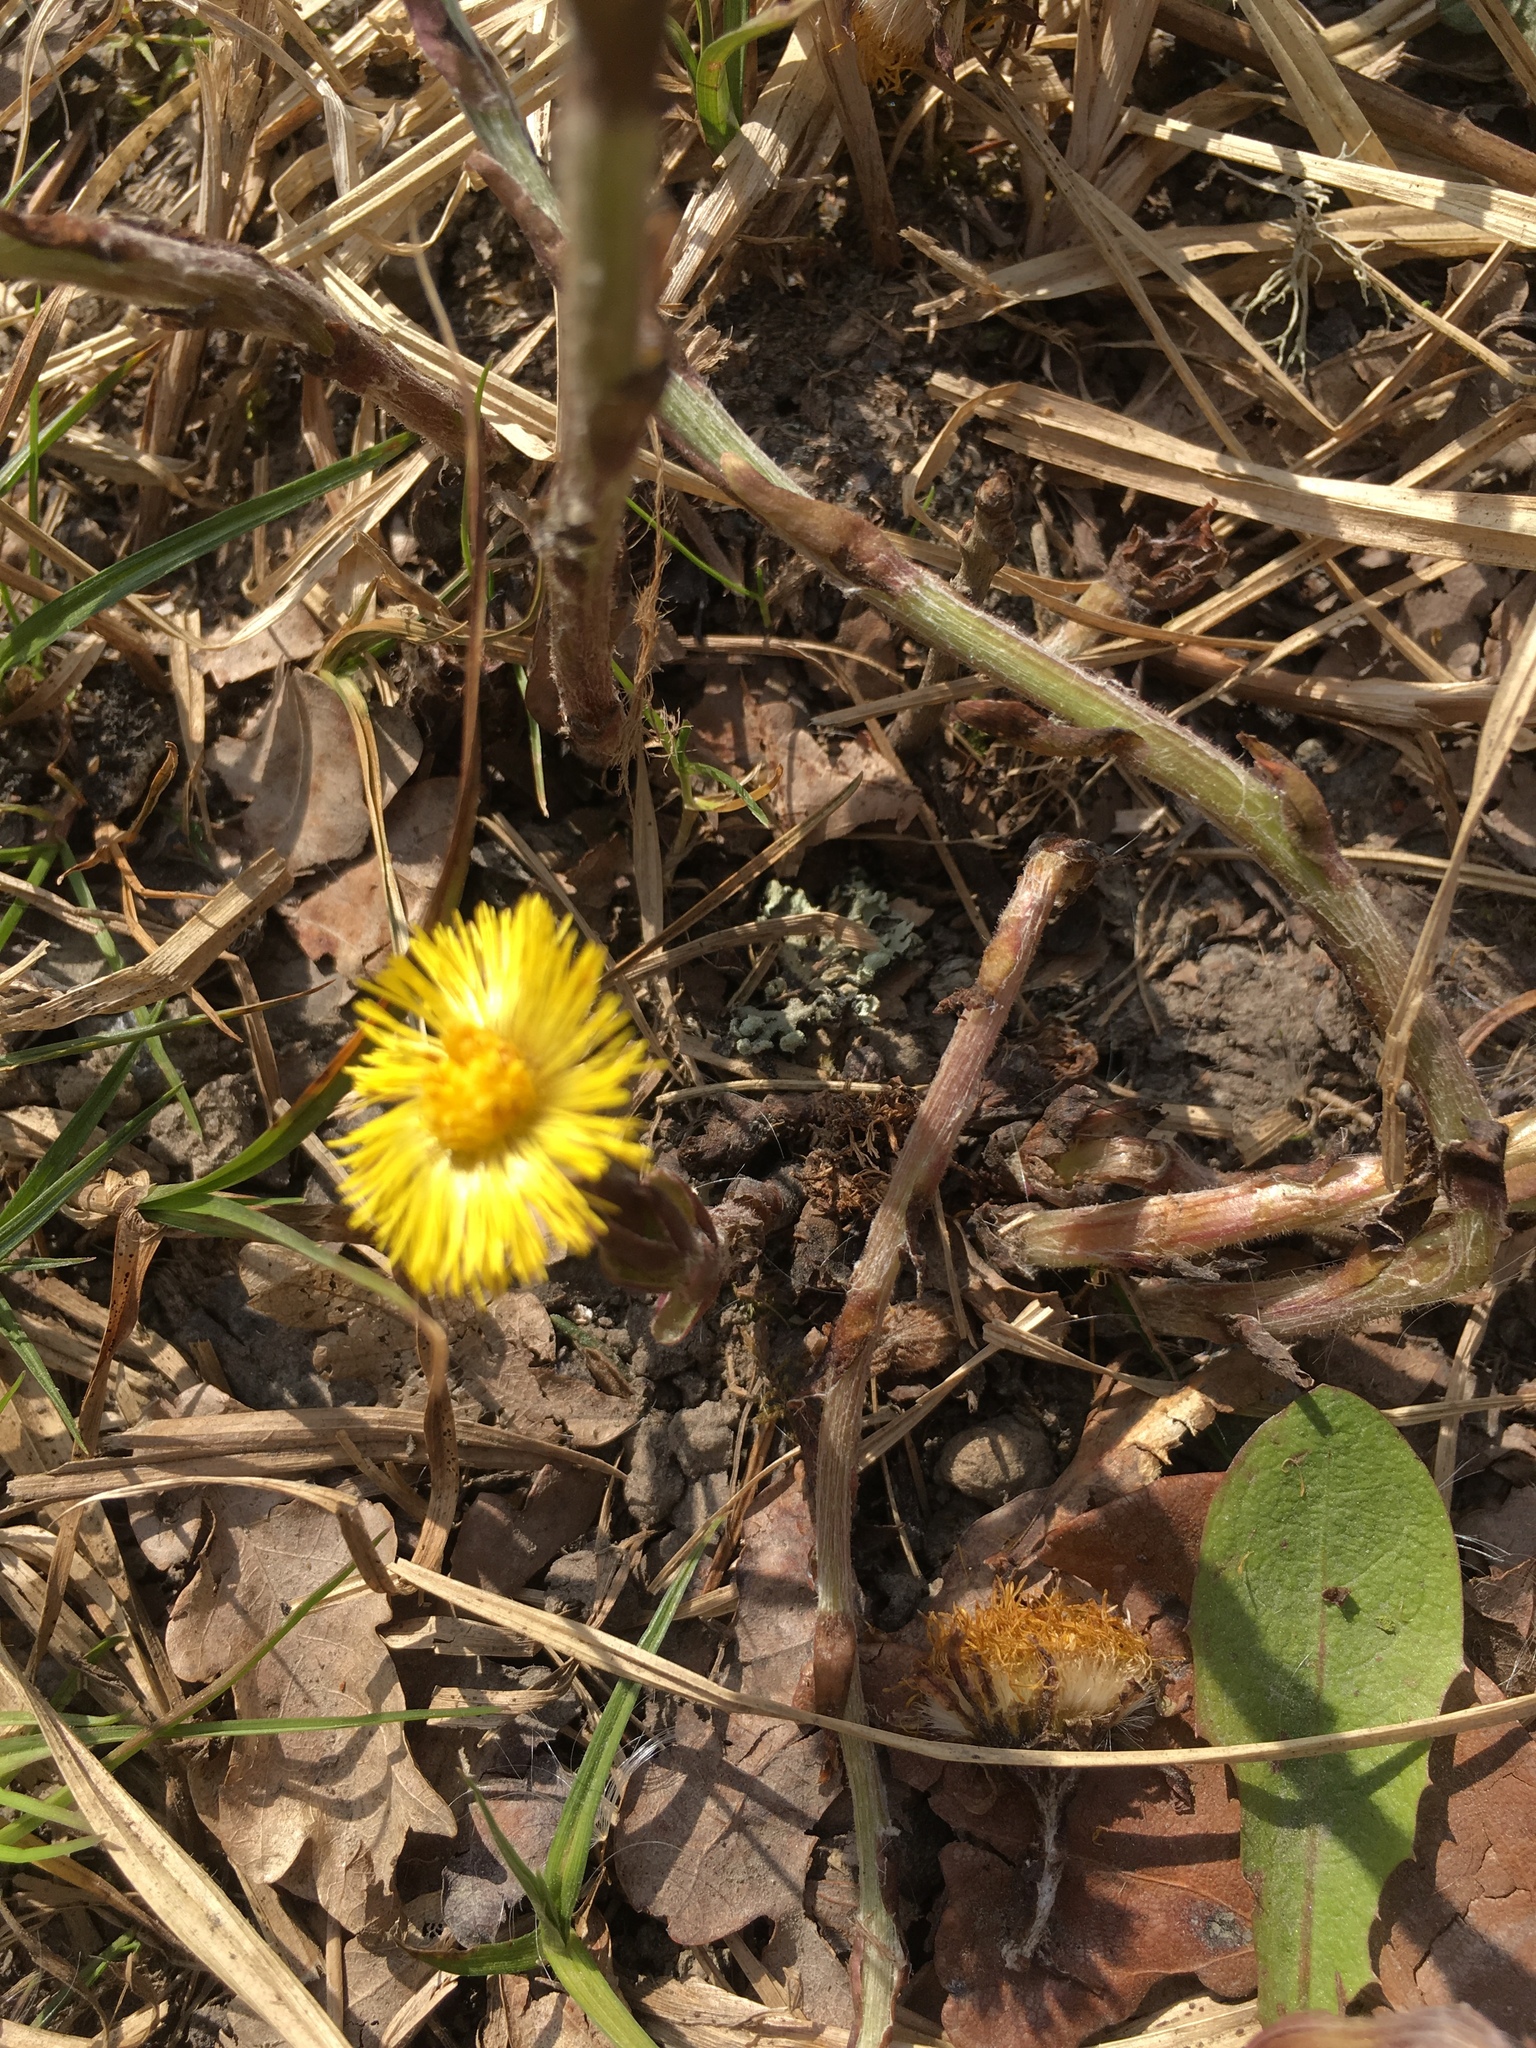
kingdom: Plantae
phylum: Tracheophyta
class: Magnoliopsida
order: Asterales
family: Asteraceae
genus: Tussilago
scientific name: Tussilago farfara
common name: Coltsfoot
